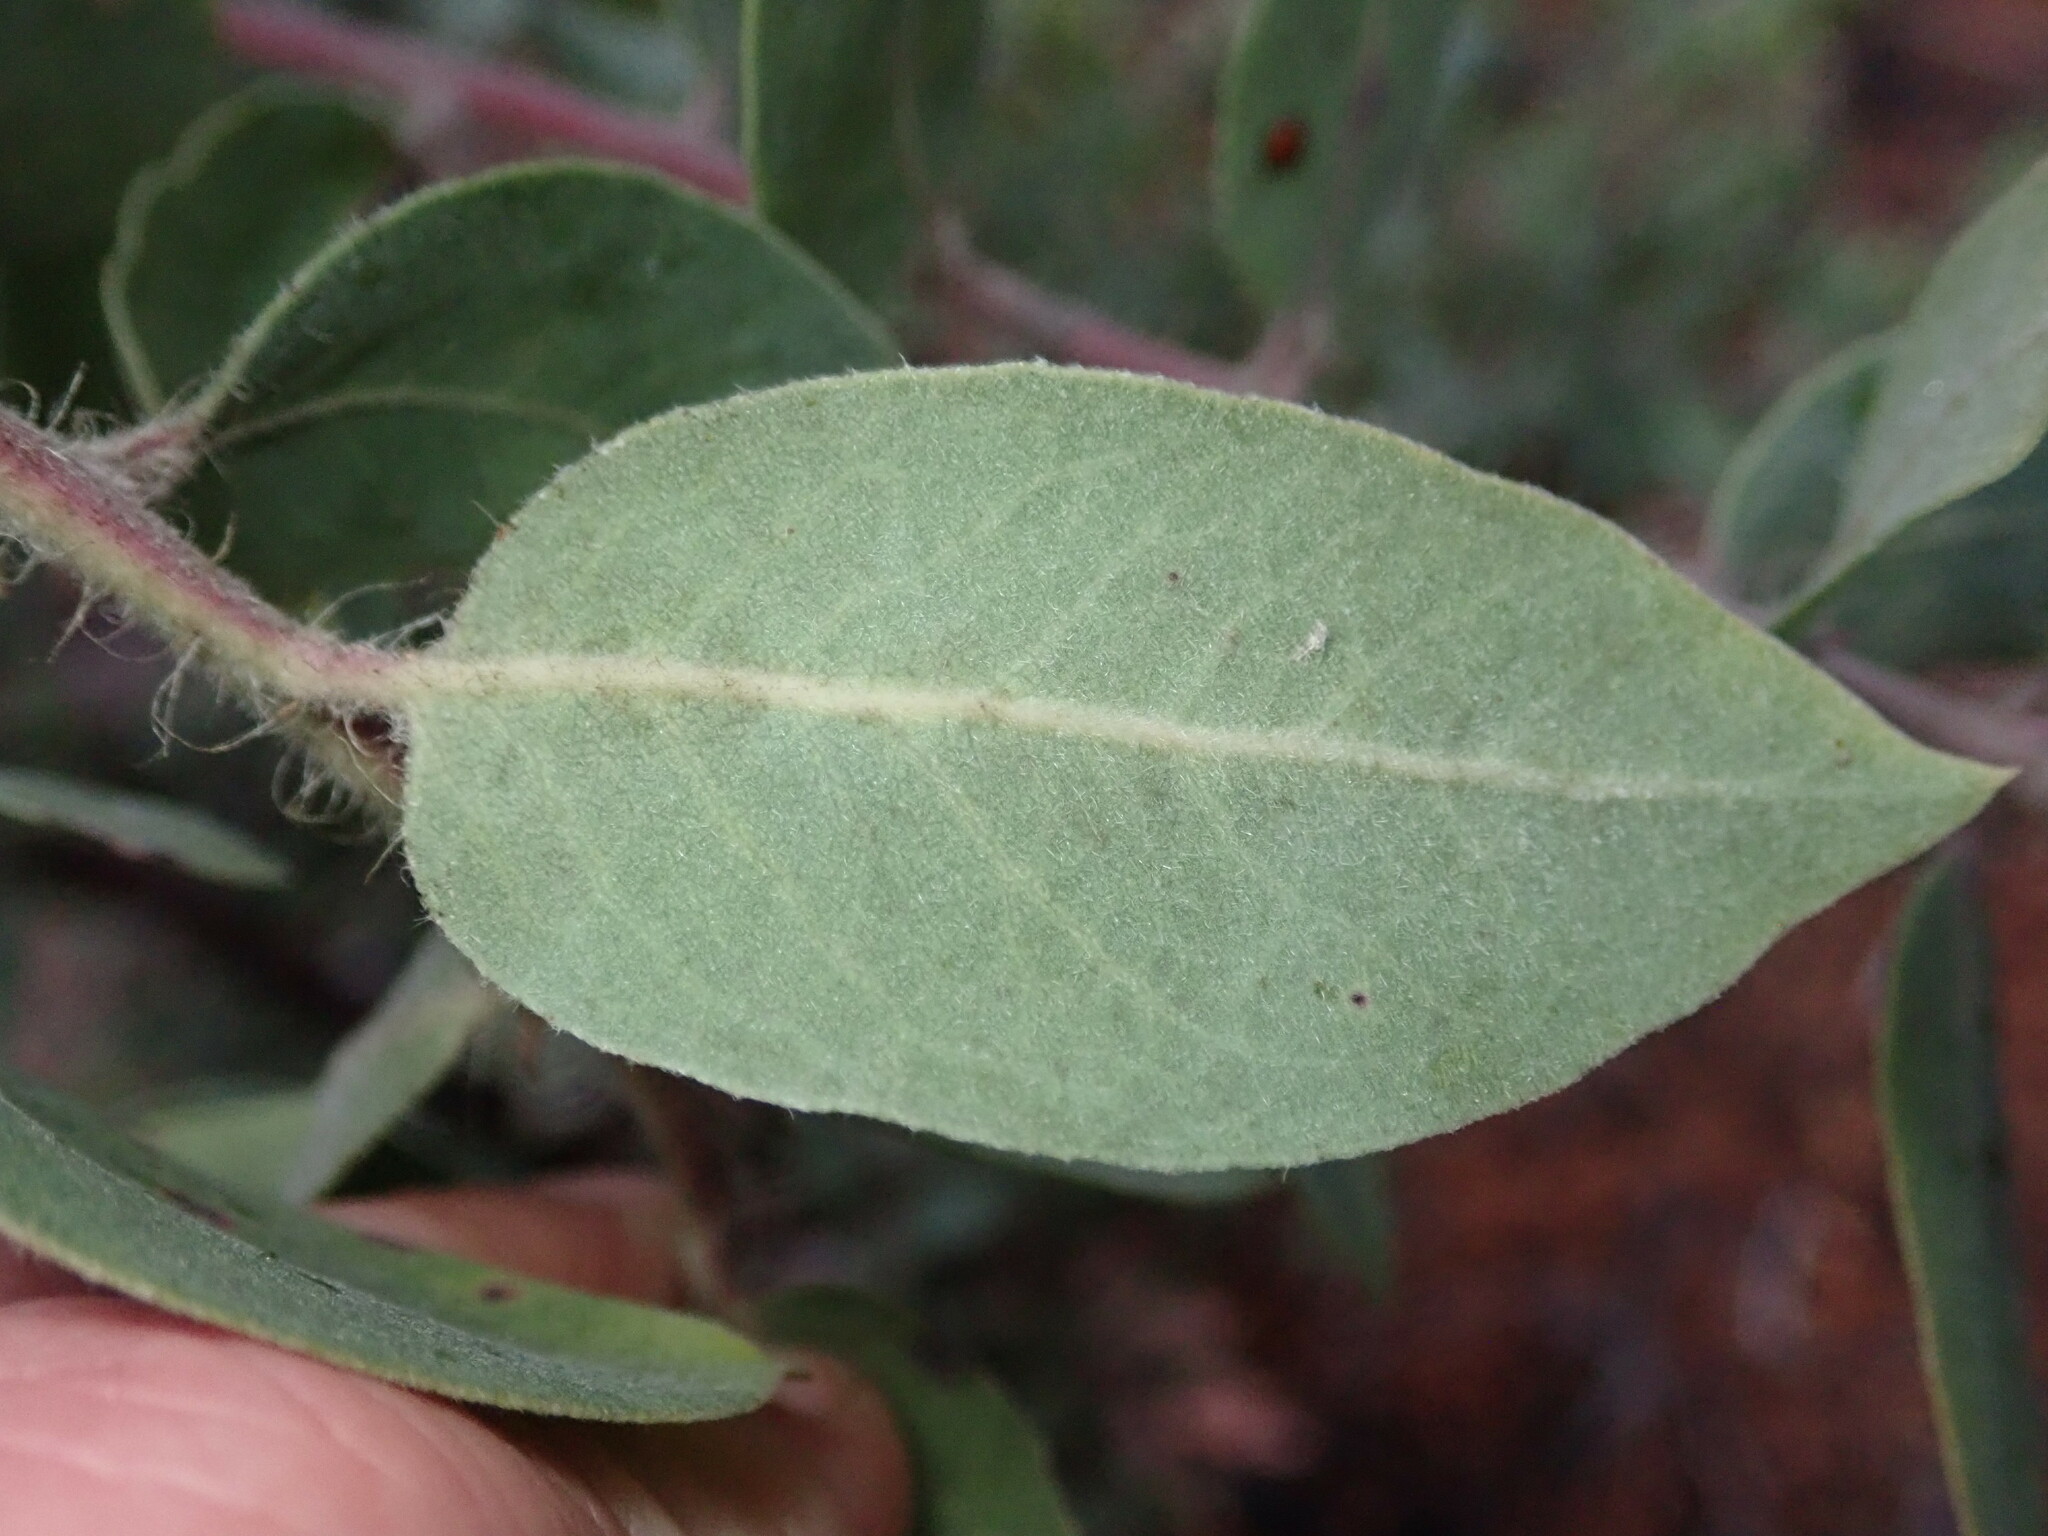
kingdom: Plantae
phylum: Tracheophyta
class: Magnoliopsida
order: Ericales
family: Ericaceae
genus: Arctostaphylos
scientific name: Arctostaphylos crustacea
